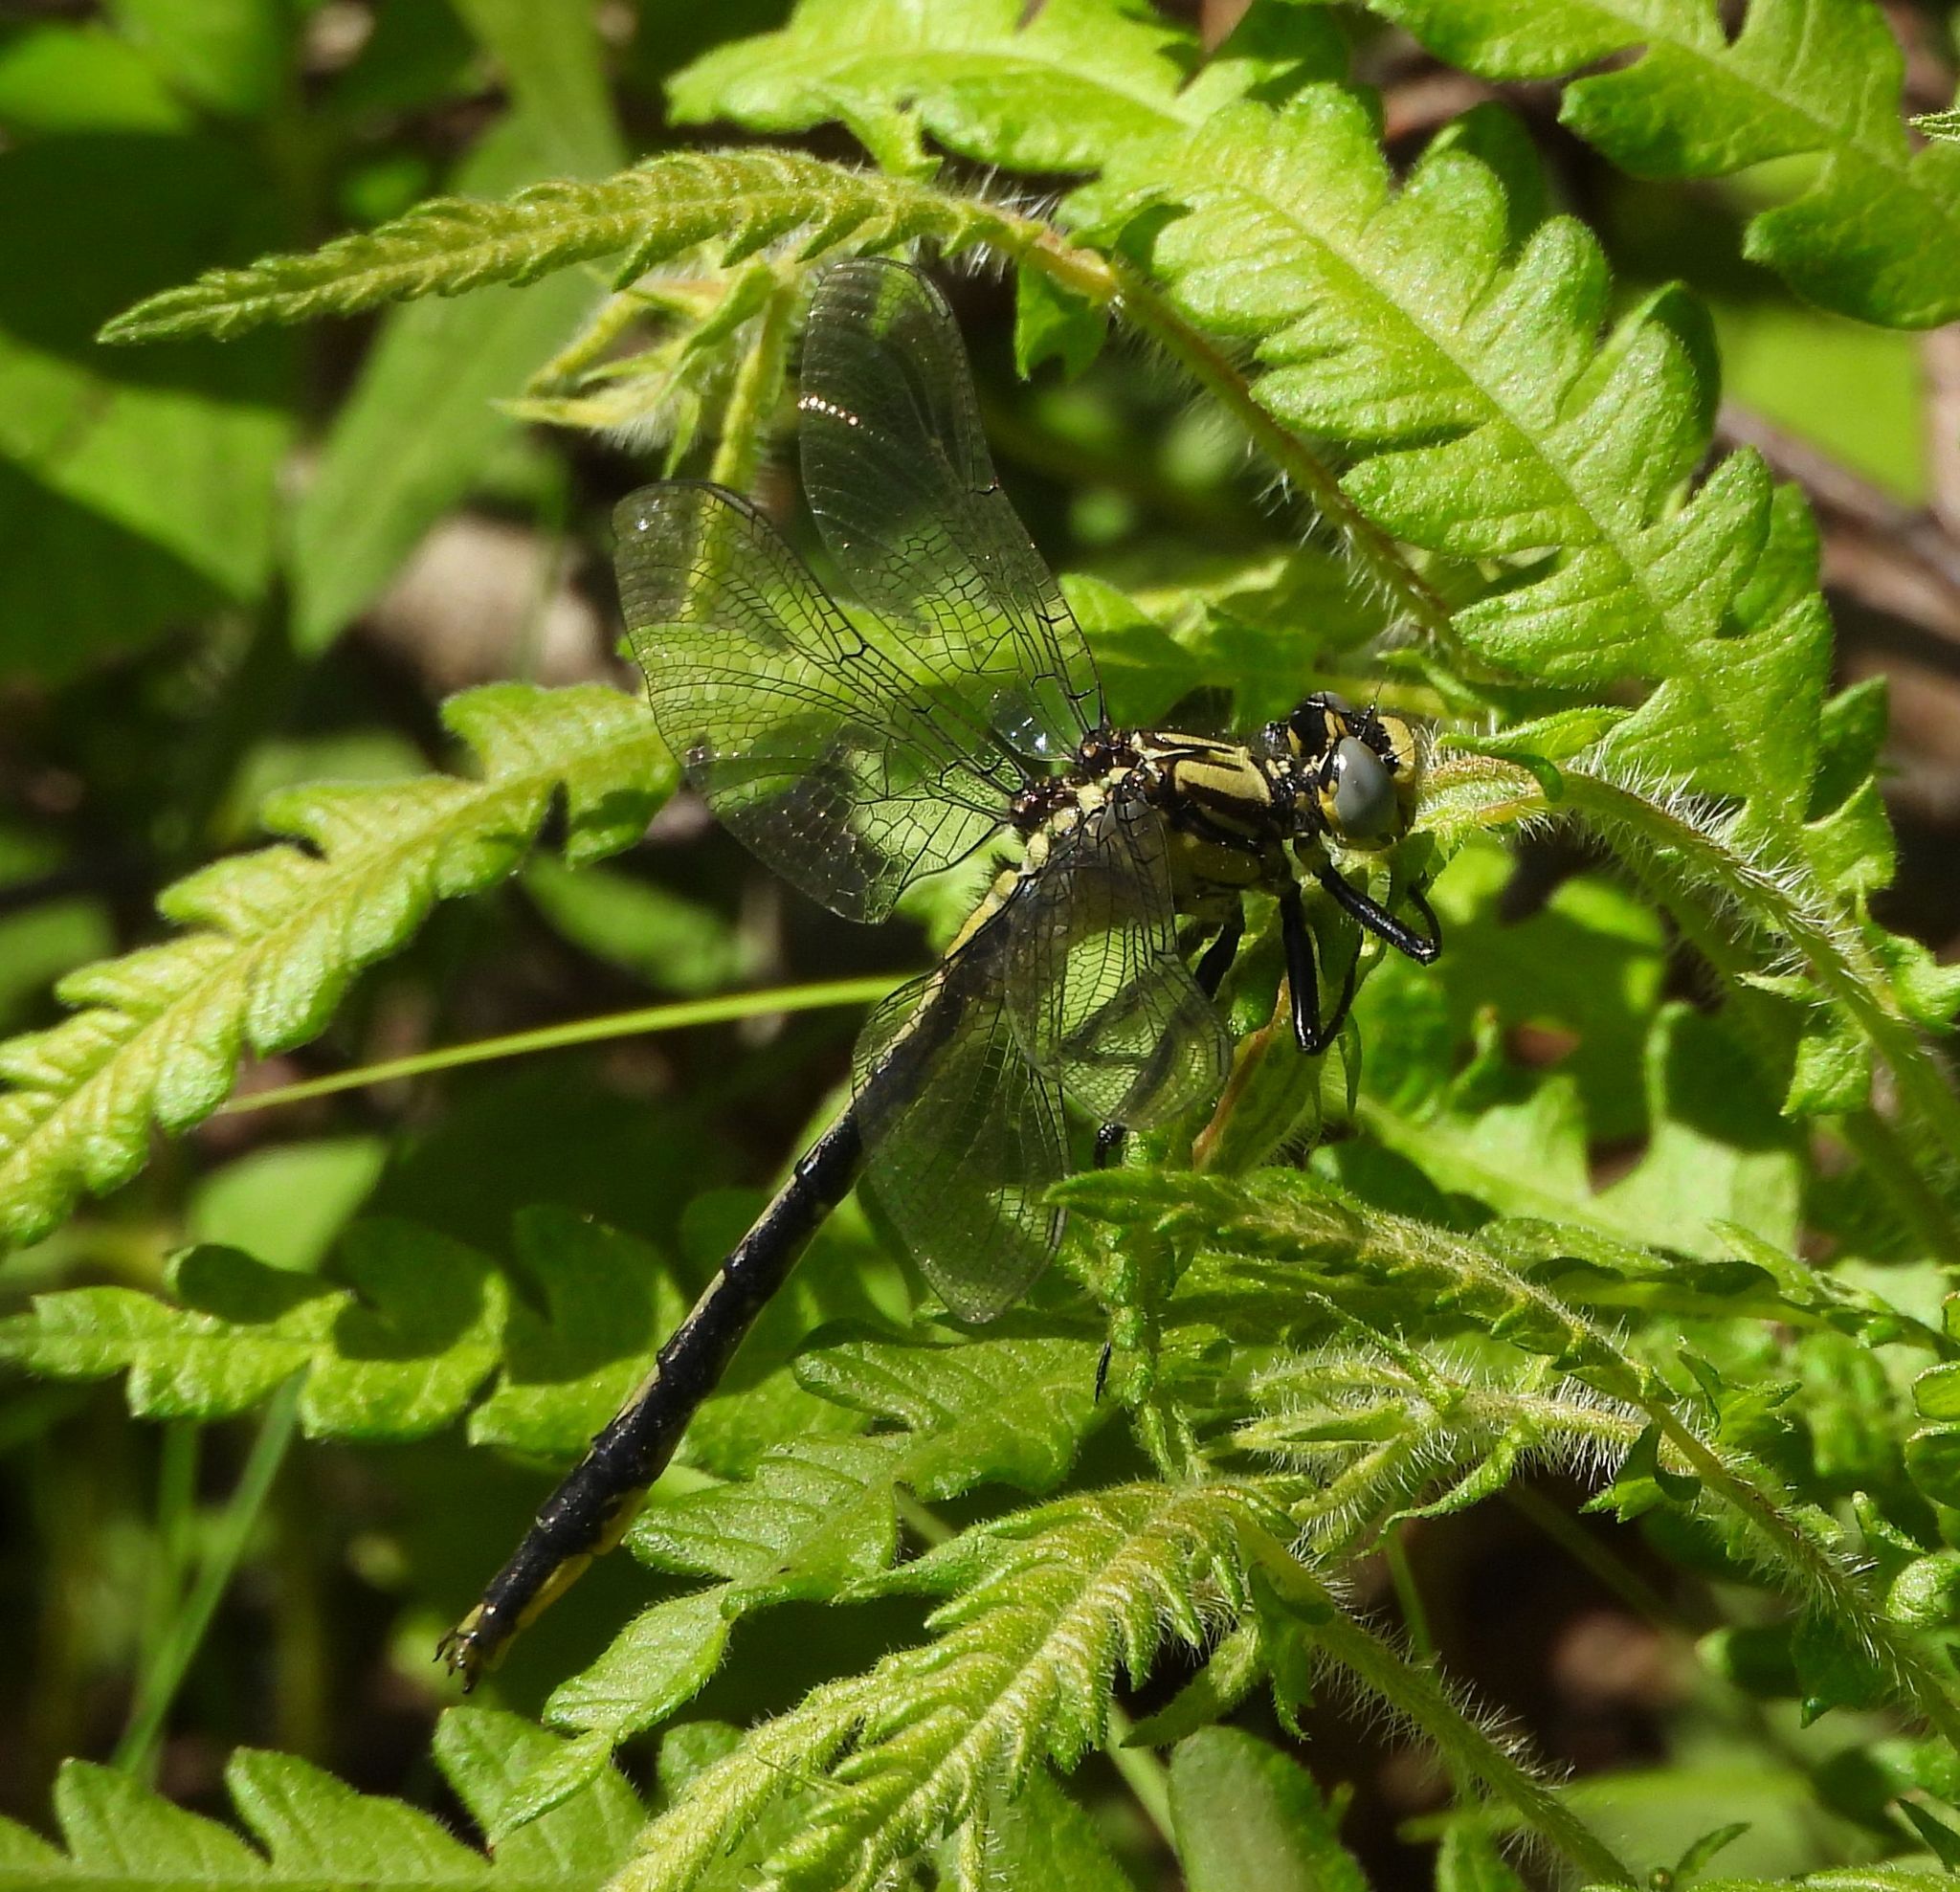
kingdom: Animalia
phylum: Arthropoda
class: Insecta
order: Odonata
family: Gomphidae
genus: Arigomphus
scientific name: Arigomphus furcifer
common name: Lilypad clubtail
